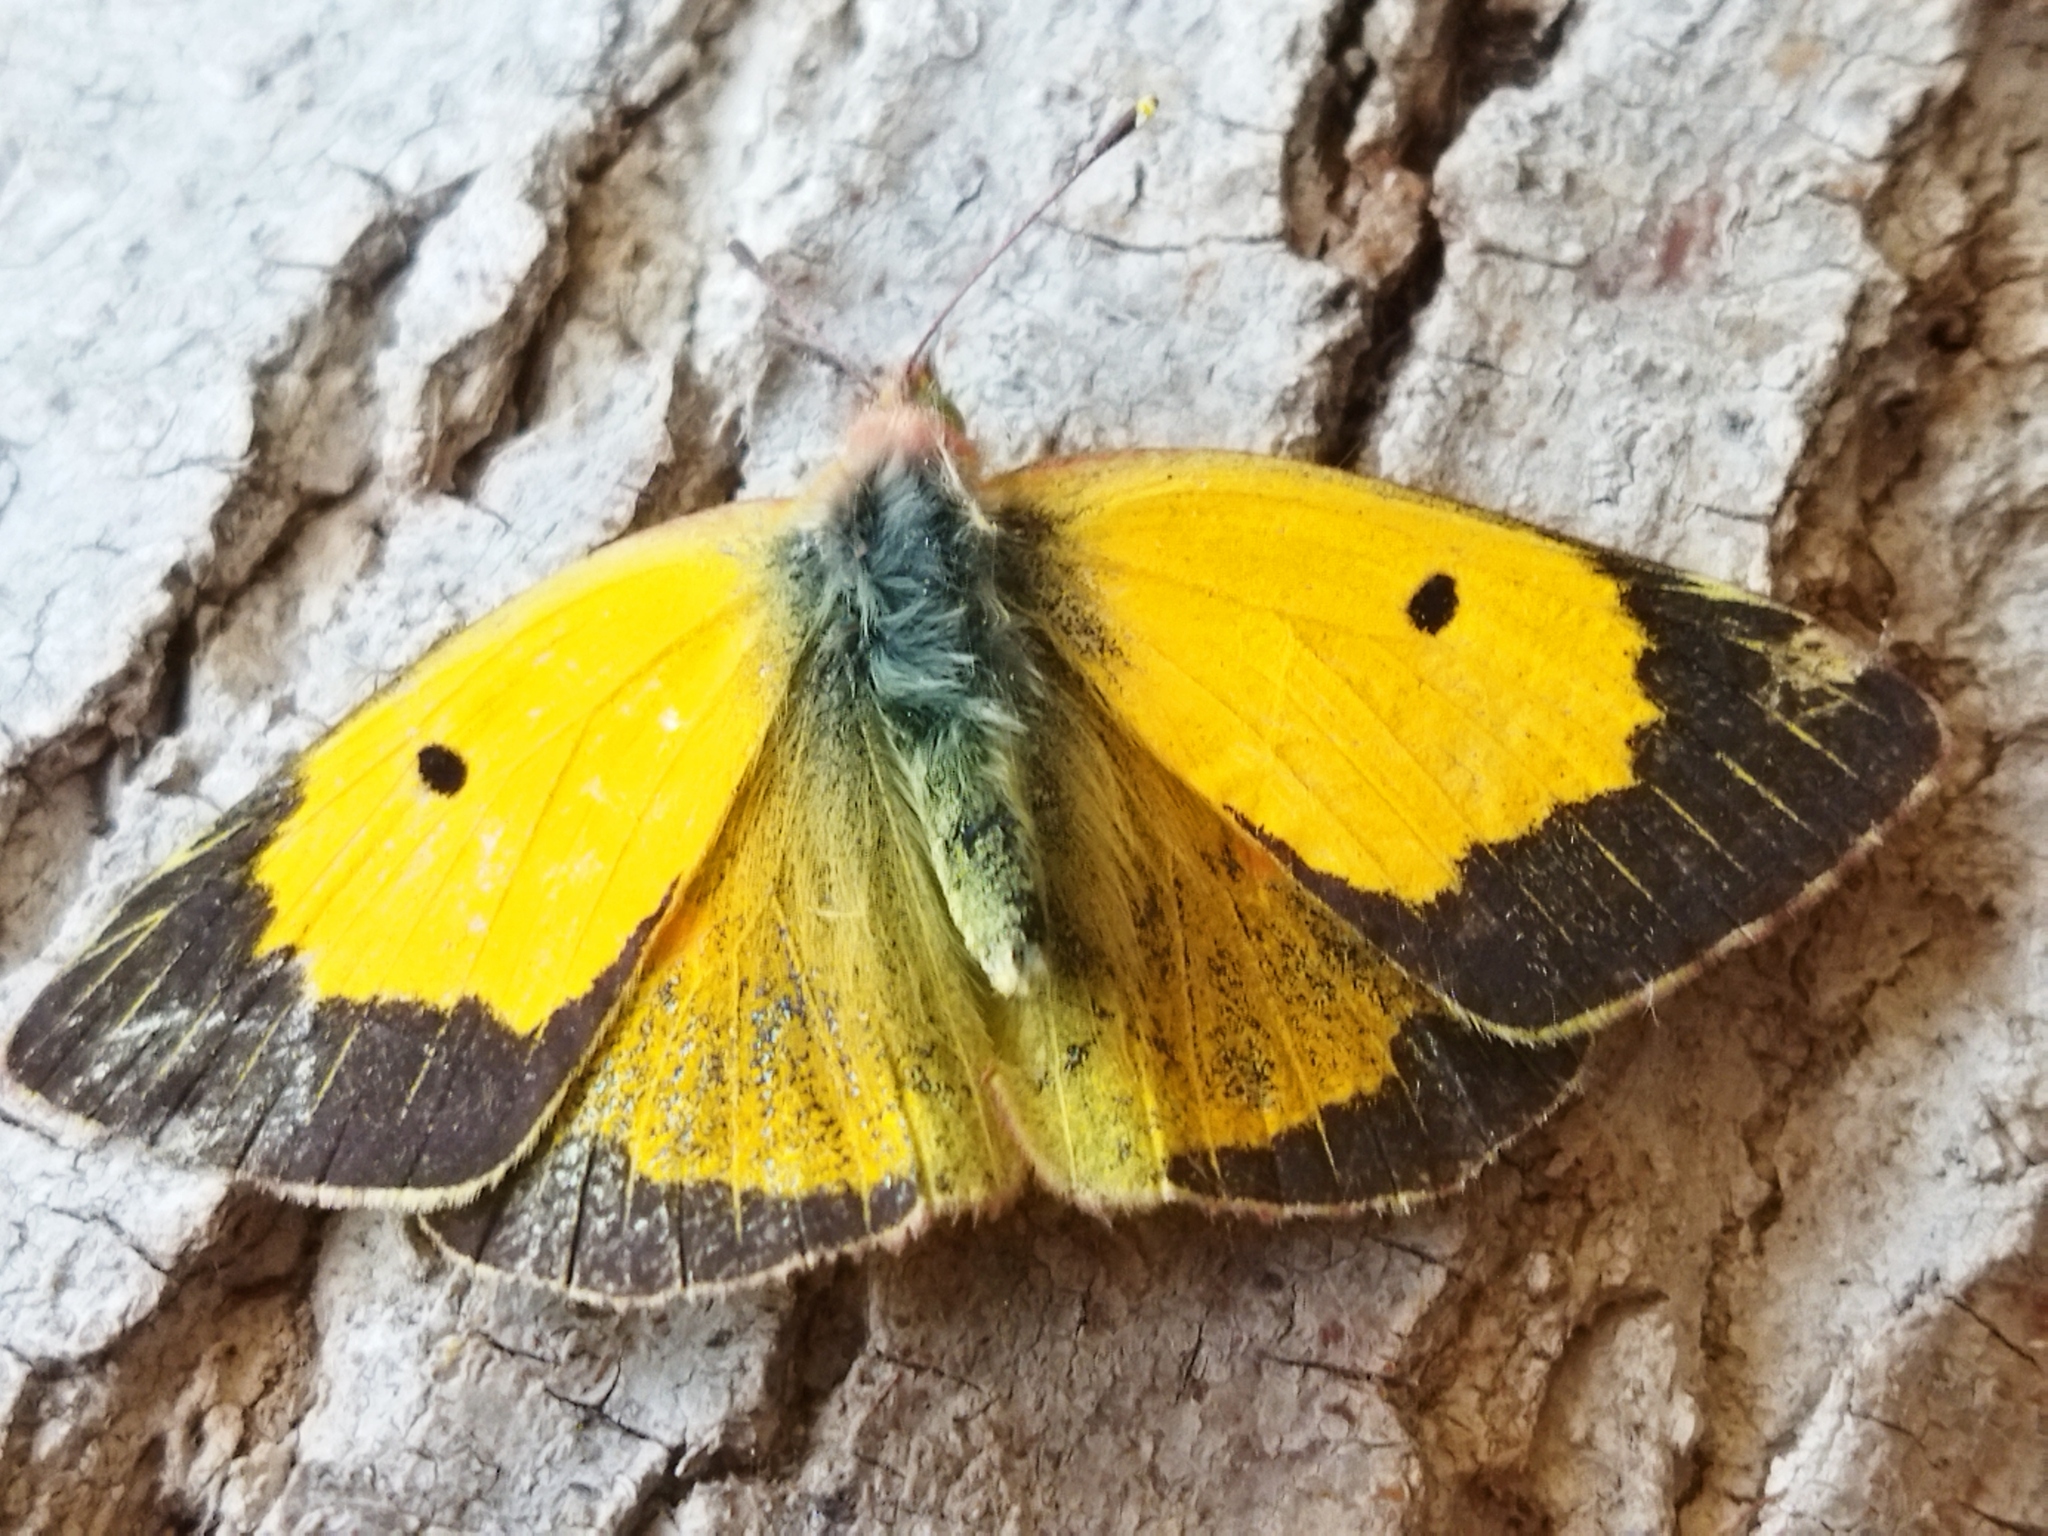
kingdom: Animalia
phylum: Arthropoda
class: Insecta
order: Lepidoptera
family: Pieridae
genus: Colias
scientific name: Colias croceus
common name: Clouded yellow
